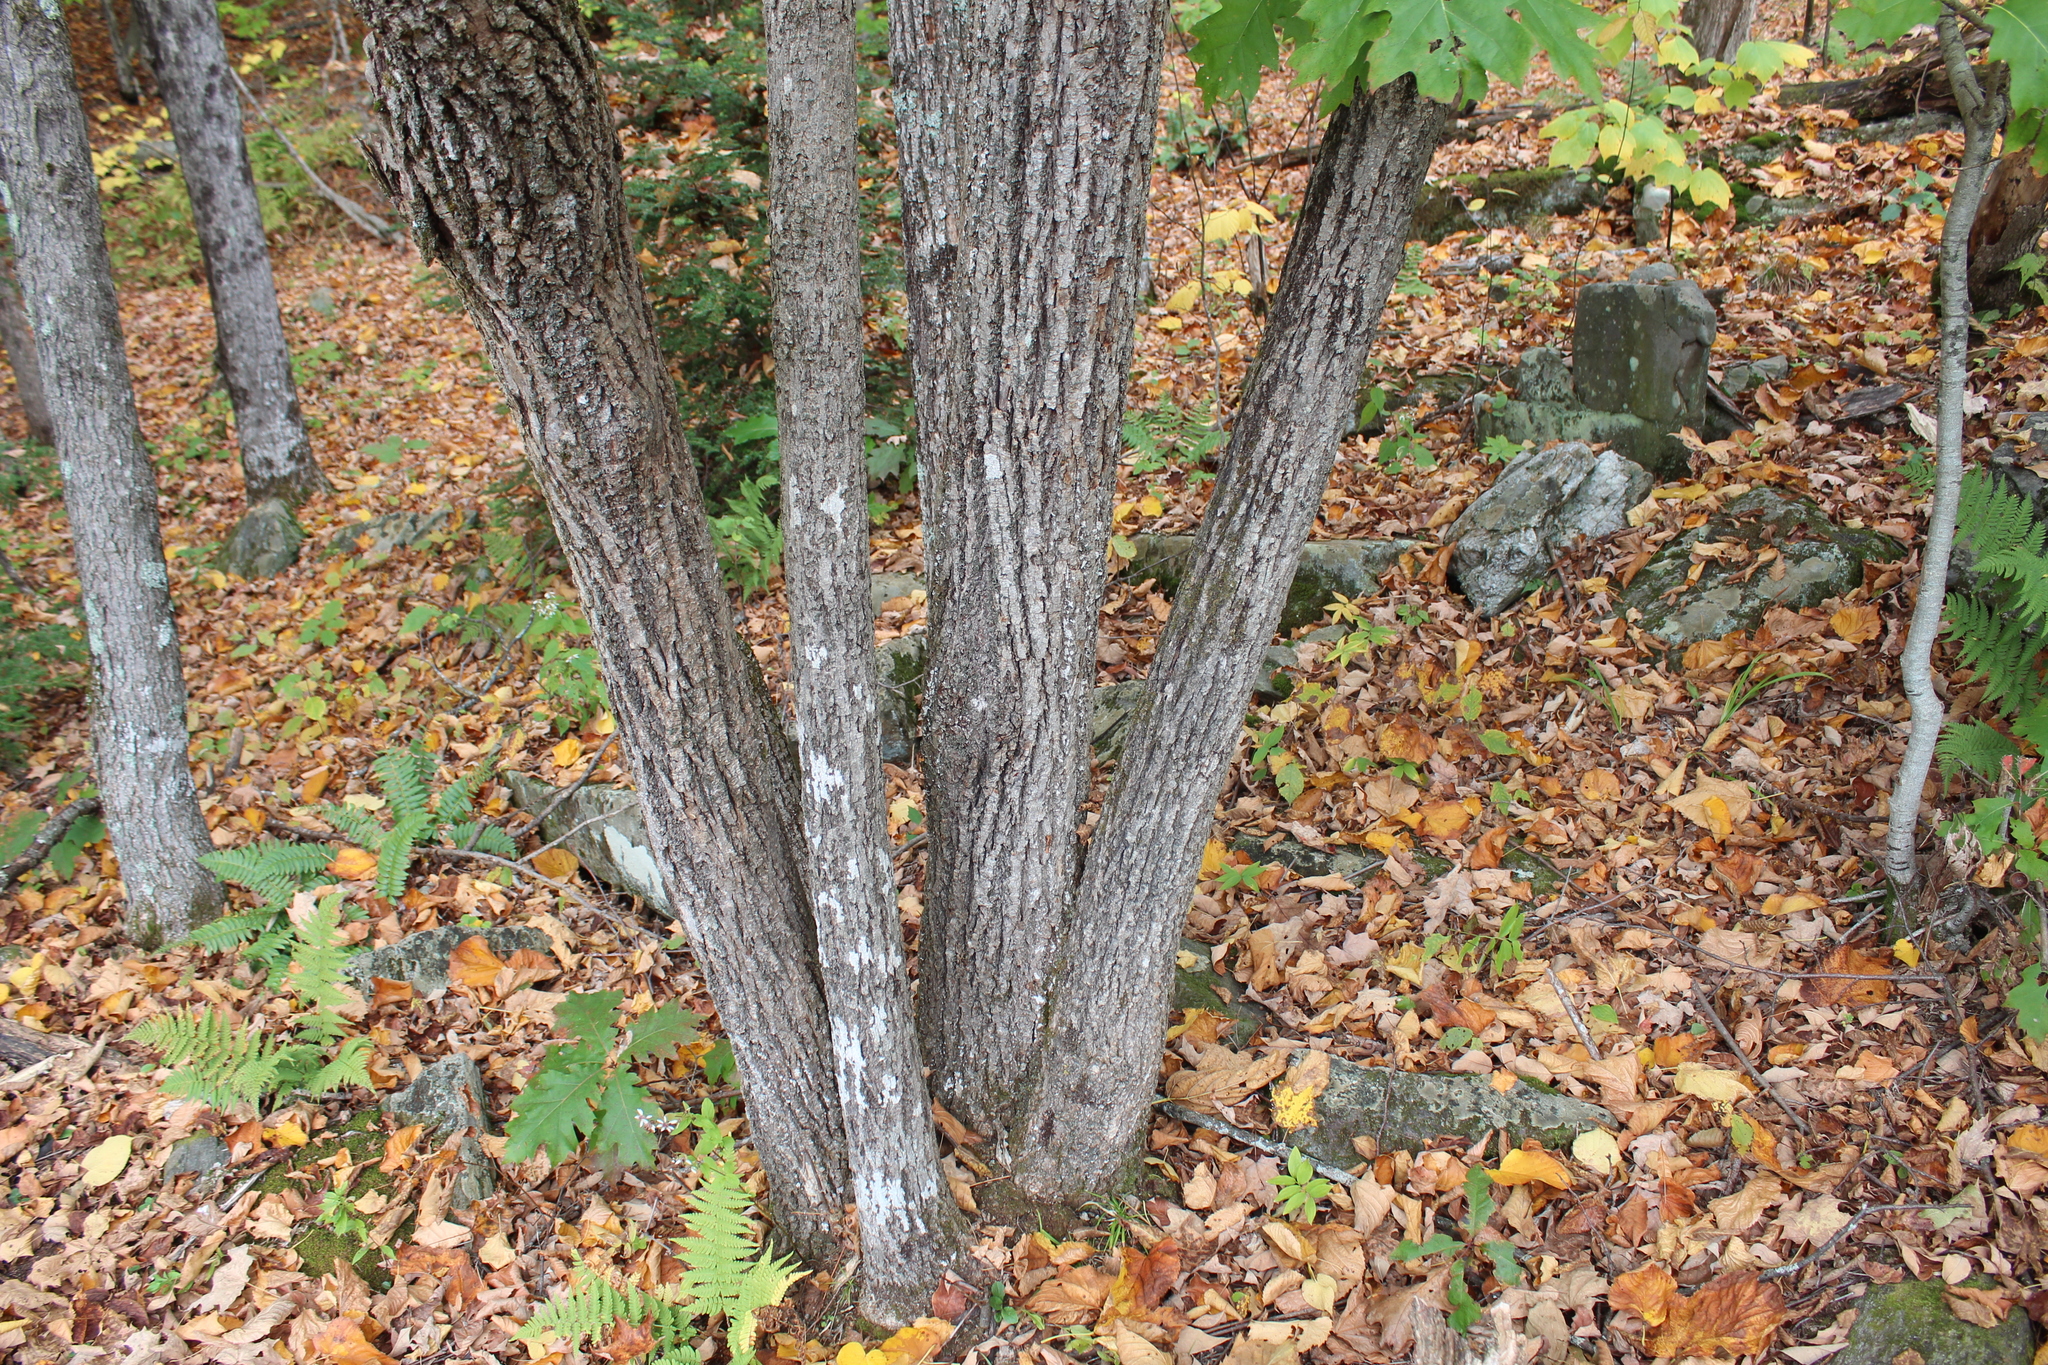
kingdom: Plantae
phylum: Tracheophyta
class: Magnoliopsida
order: Malvales
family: Malvaceae
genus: Tilia
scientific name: Tilia americana
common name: Basswood
